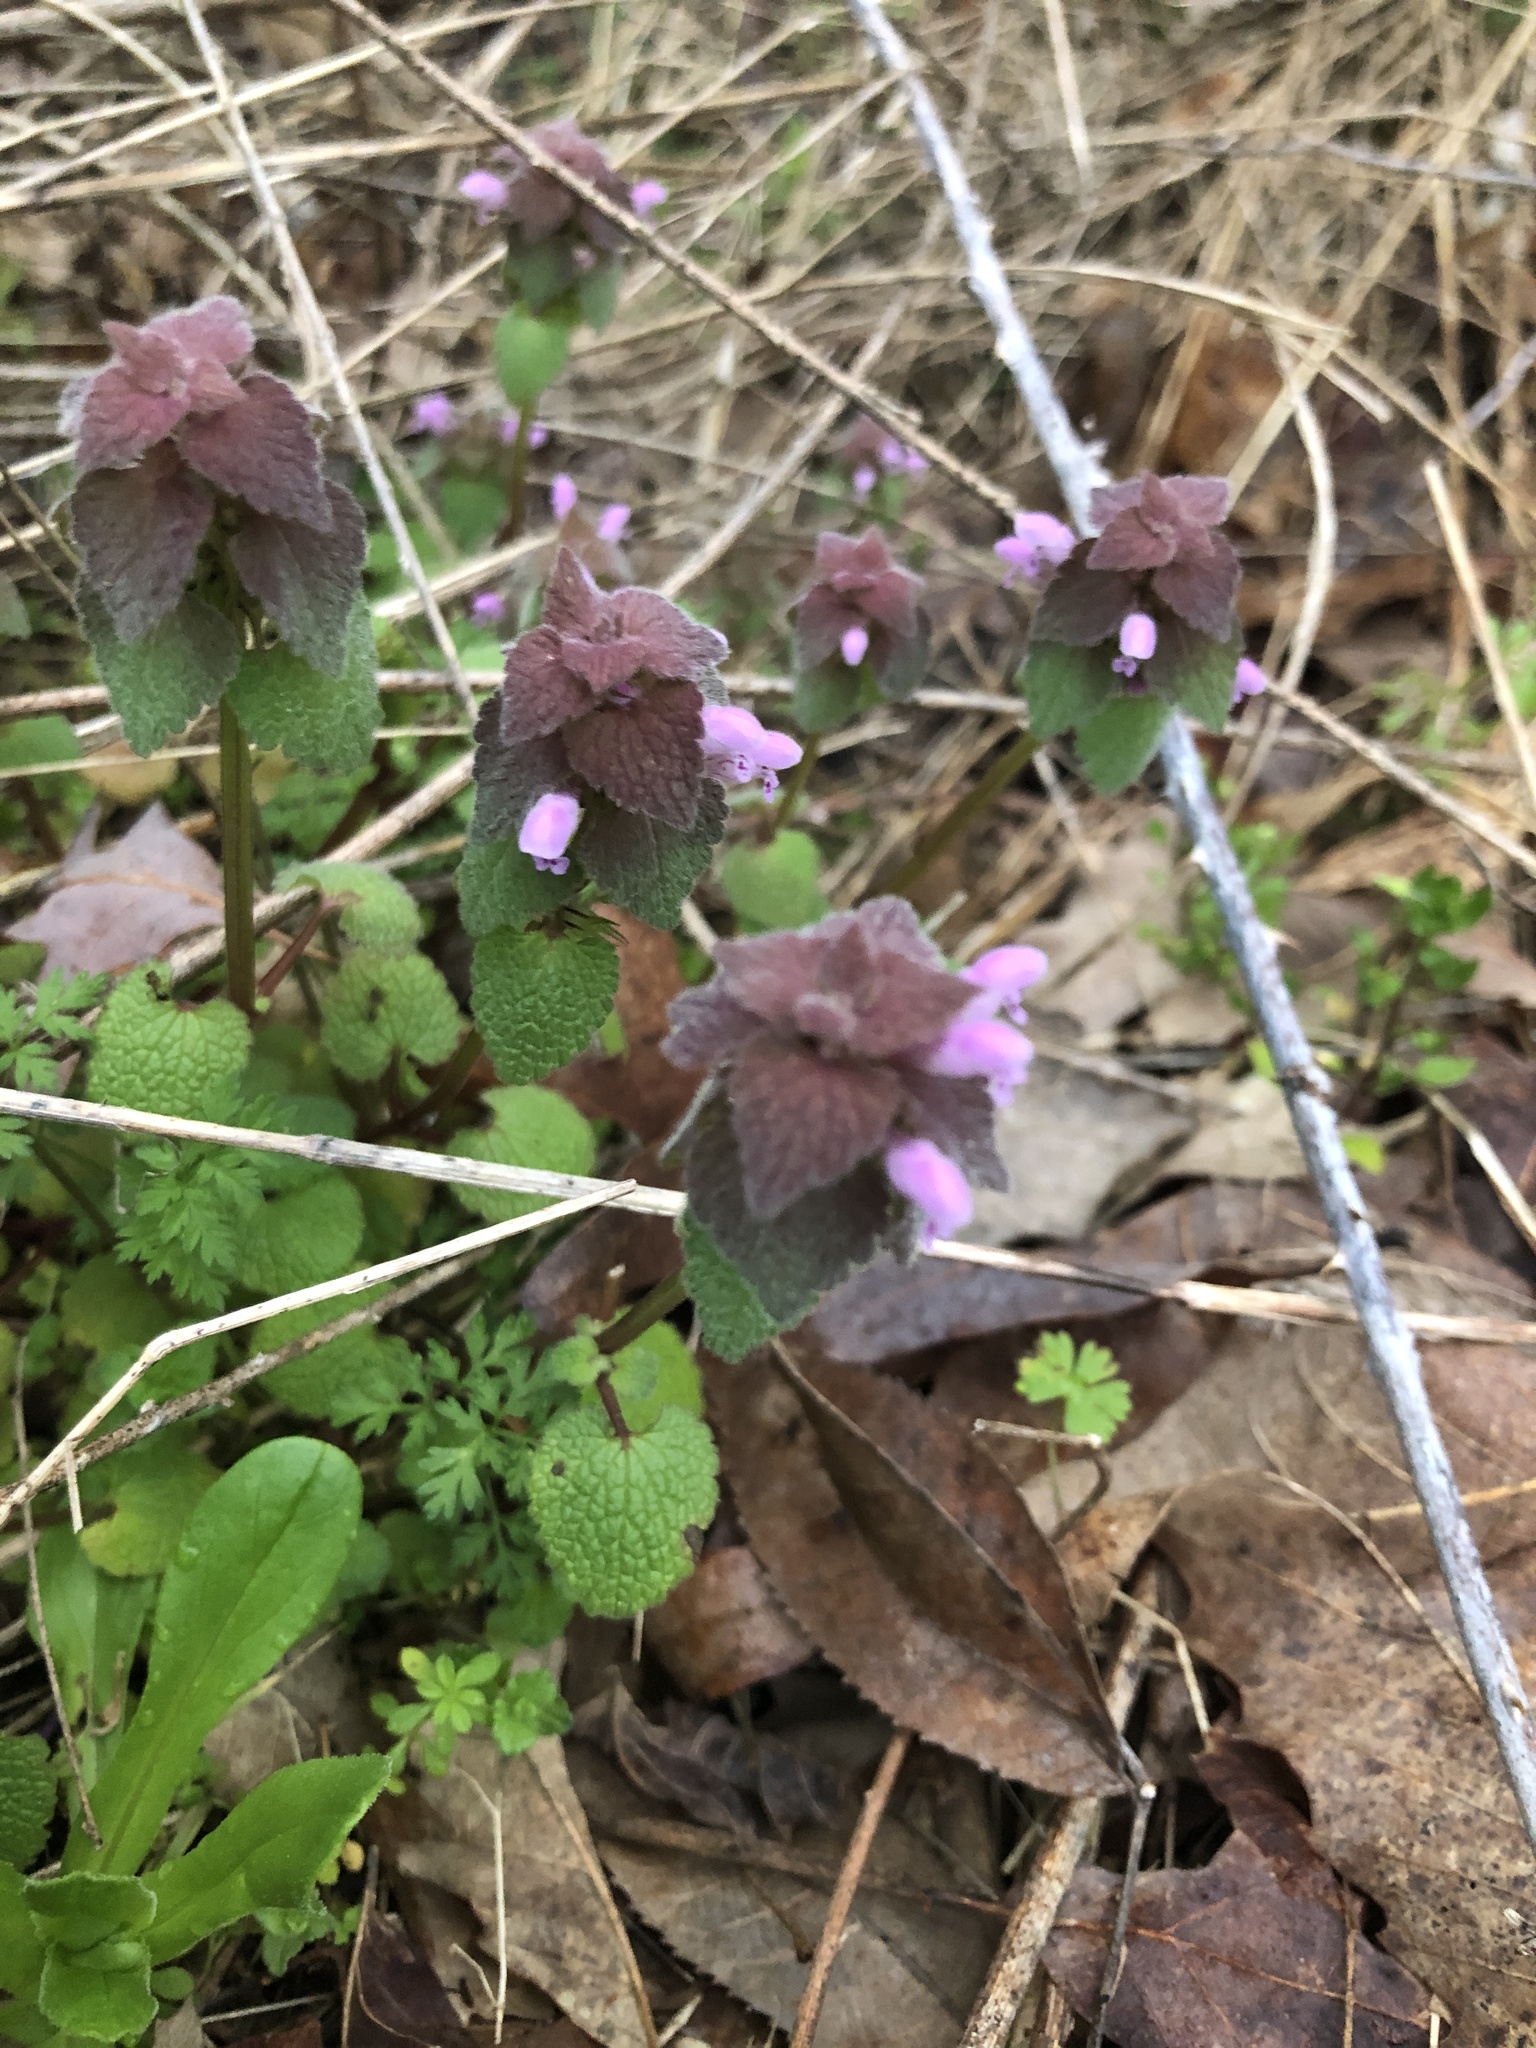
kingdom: Plantae
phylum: Tracheophyta
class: Magnoliopsida
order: Lamiales
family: Lamiaceae
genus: Lamium
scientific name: Lamium purpureum
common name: Red dead-nettle
